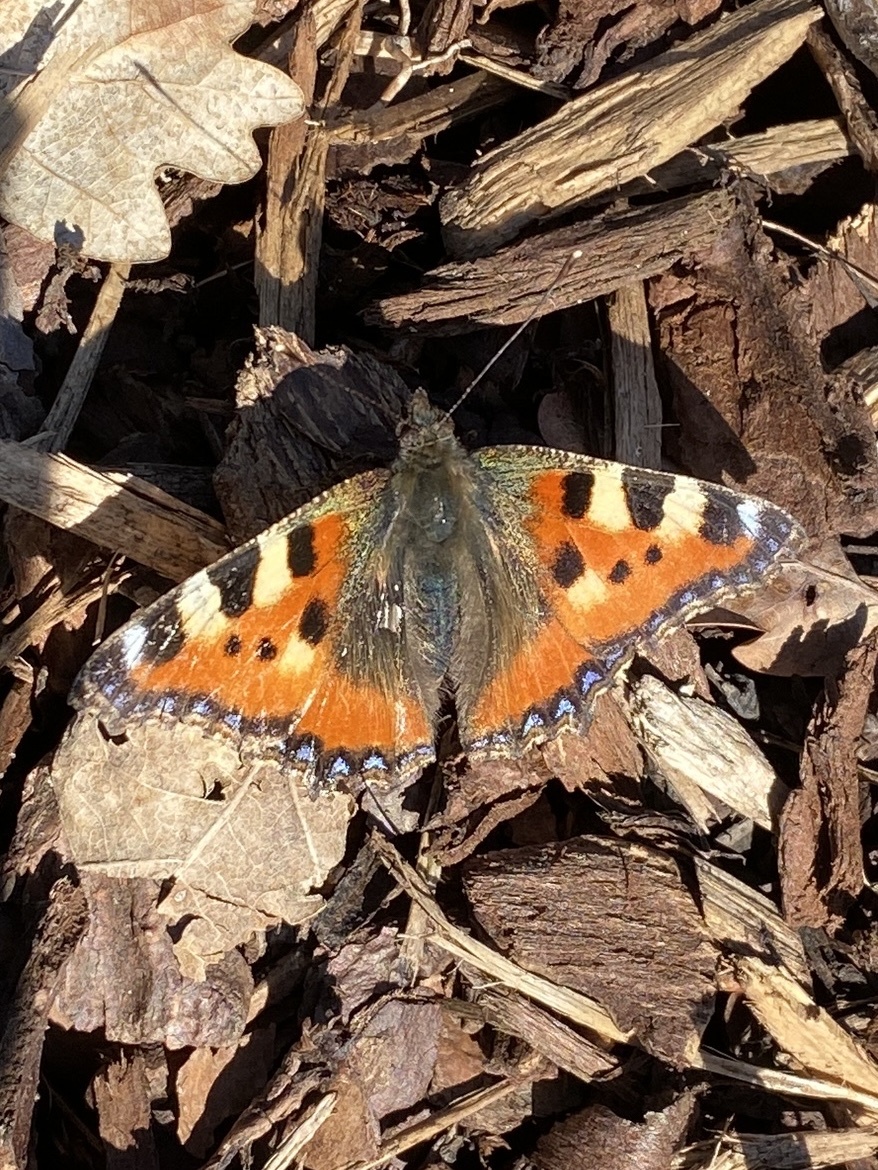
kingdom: Animalia
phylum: Arthropoda
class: Insecta
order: Lepidoptera
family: Nymphalidae
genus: Aglais
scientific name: Aglais urticae
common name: Small tortoiseshell
